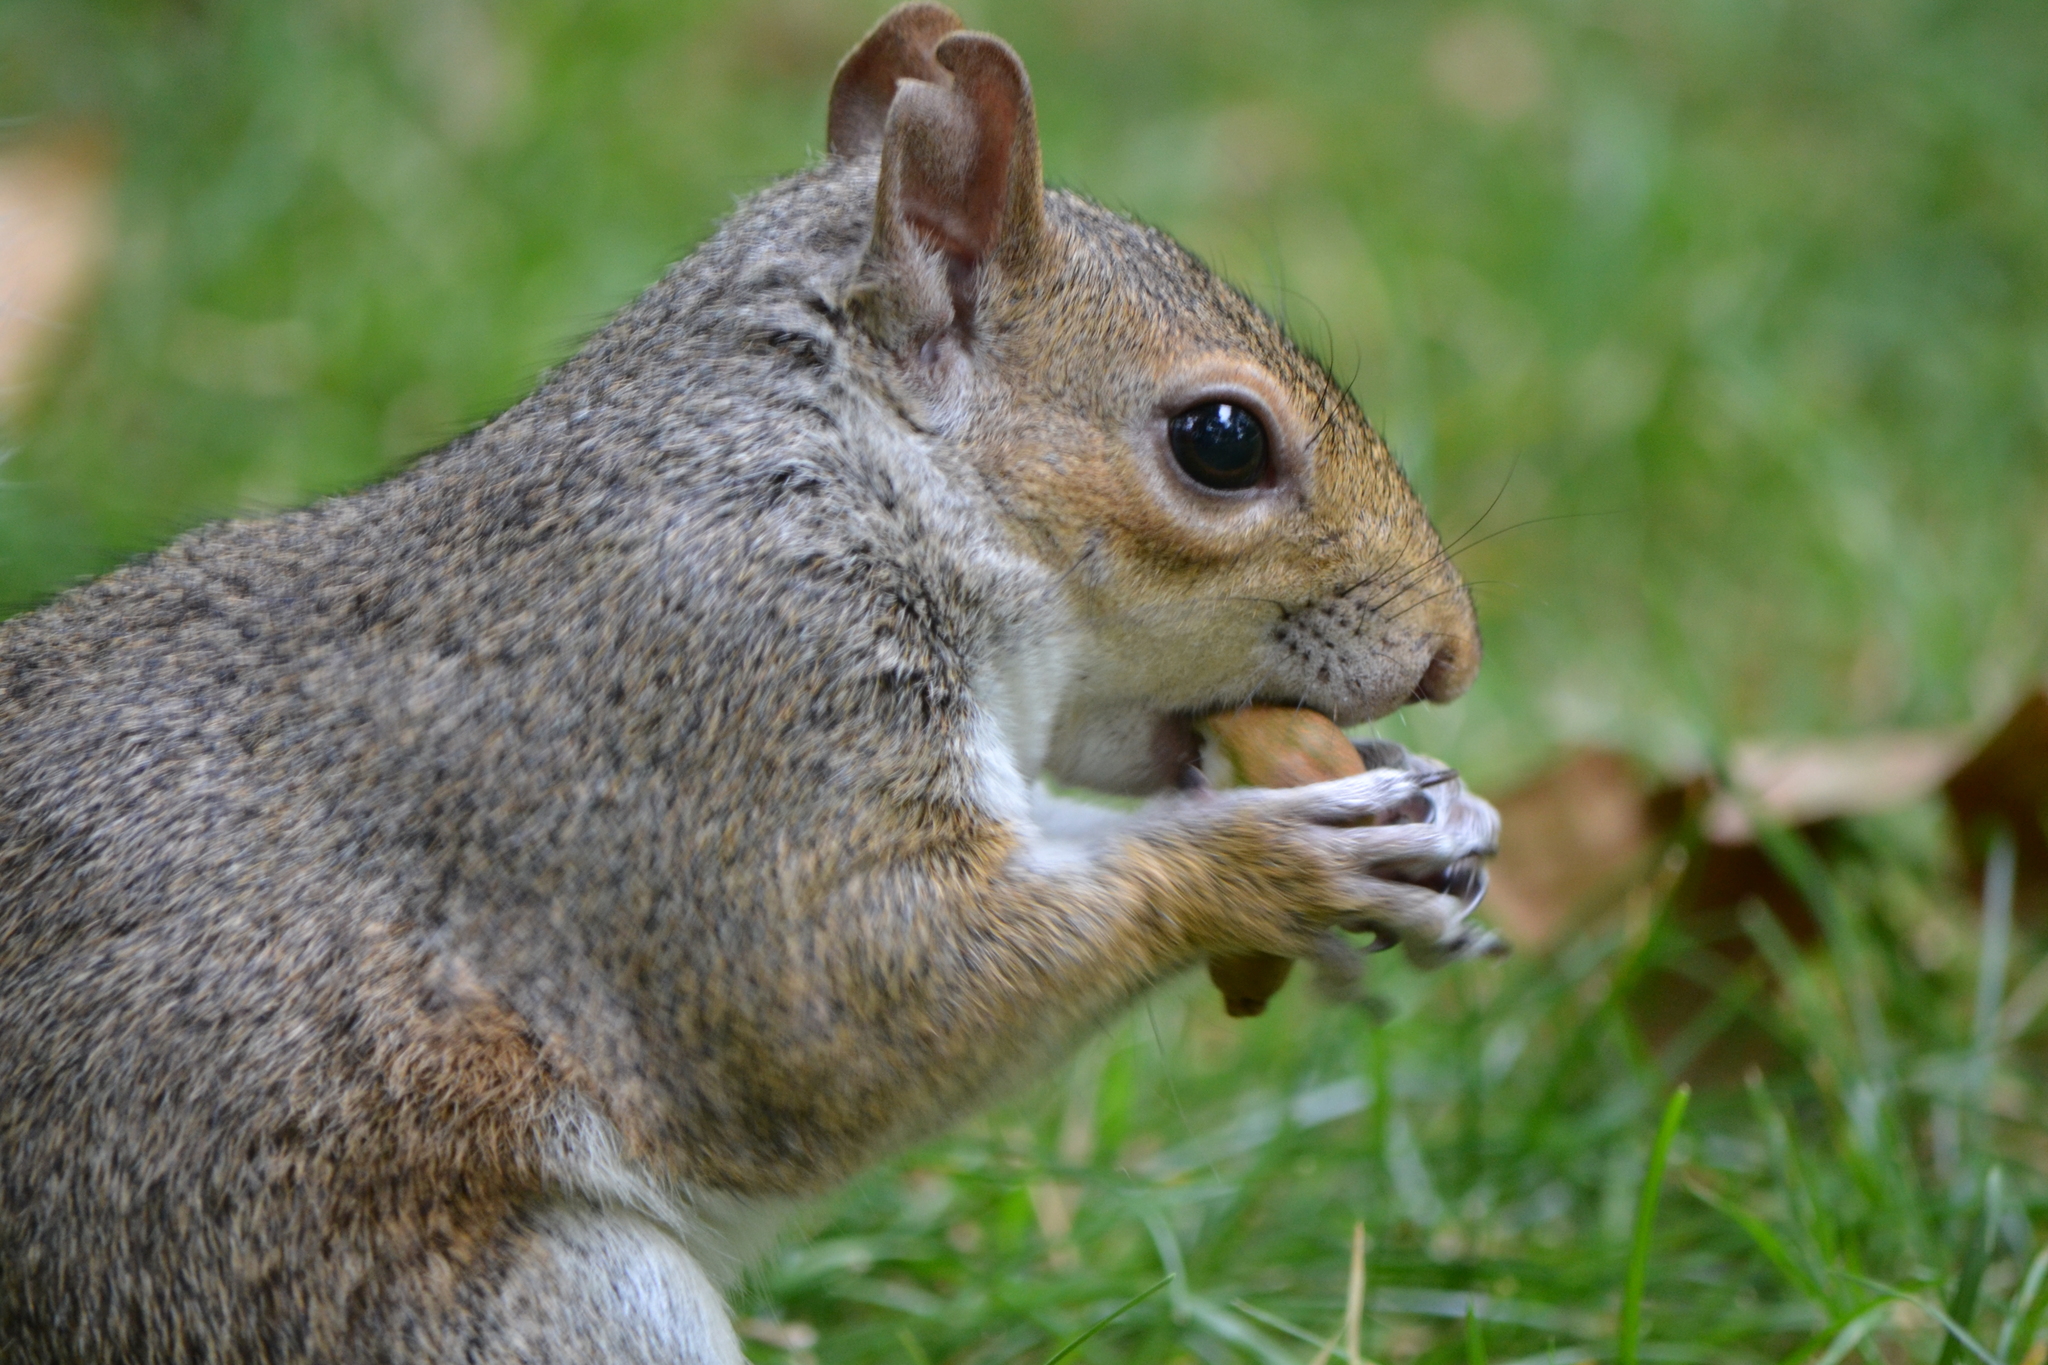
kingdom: Animalia
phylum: Chordata
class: Mammalia
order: Rodentia
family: Sciuridae
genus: Sciurus
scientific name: Sciurus carolinensis
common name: Eastern gray squirrel
